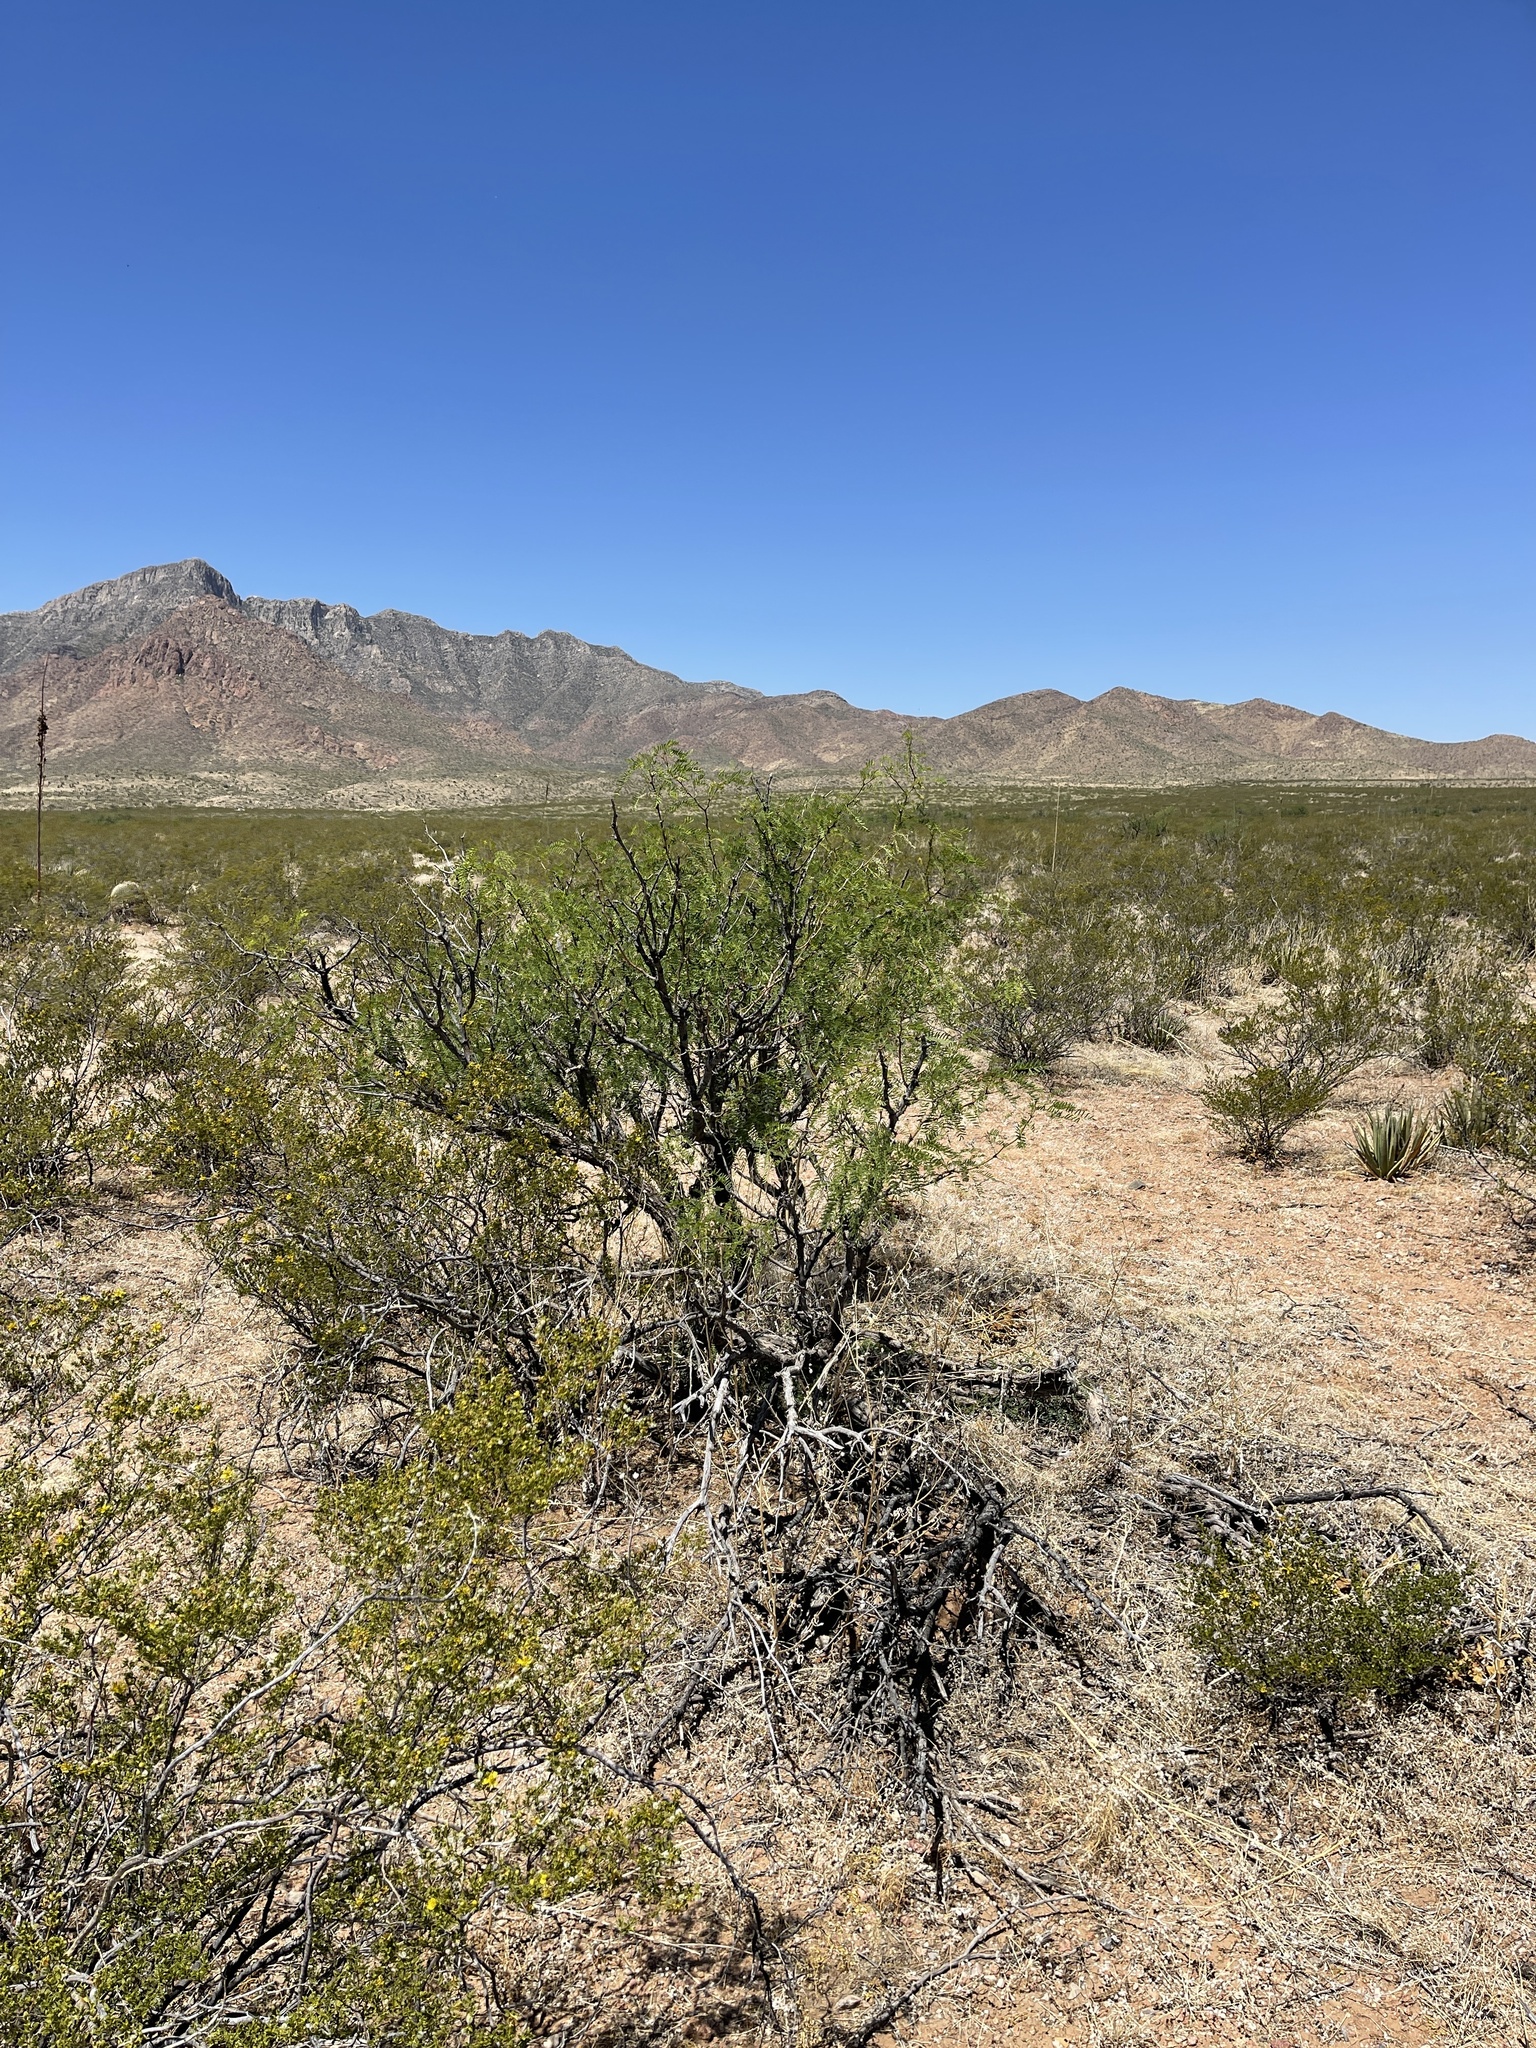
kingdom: Plantae
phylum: Tracheophyta
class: Magnoliopsida
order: Fabales
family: Fabaceae
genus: Prosopis
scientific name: Prosopis glandulosa
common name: Honey mesquite
